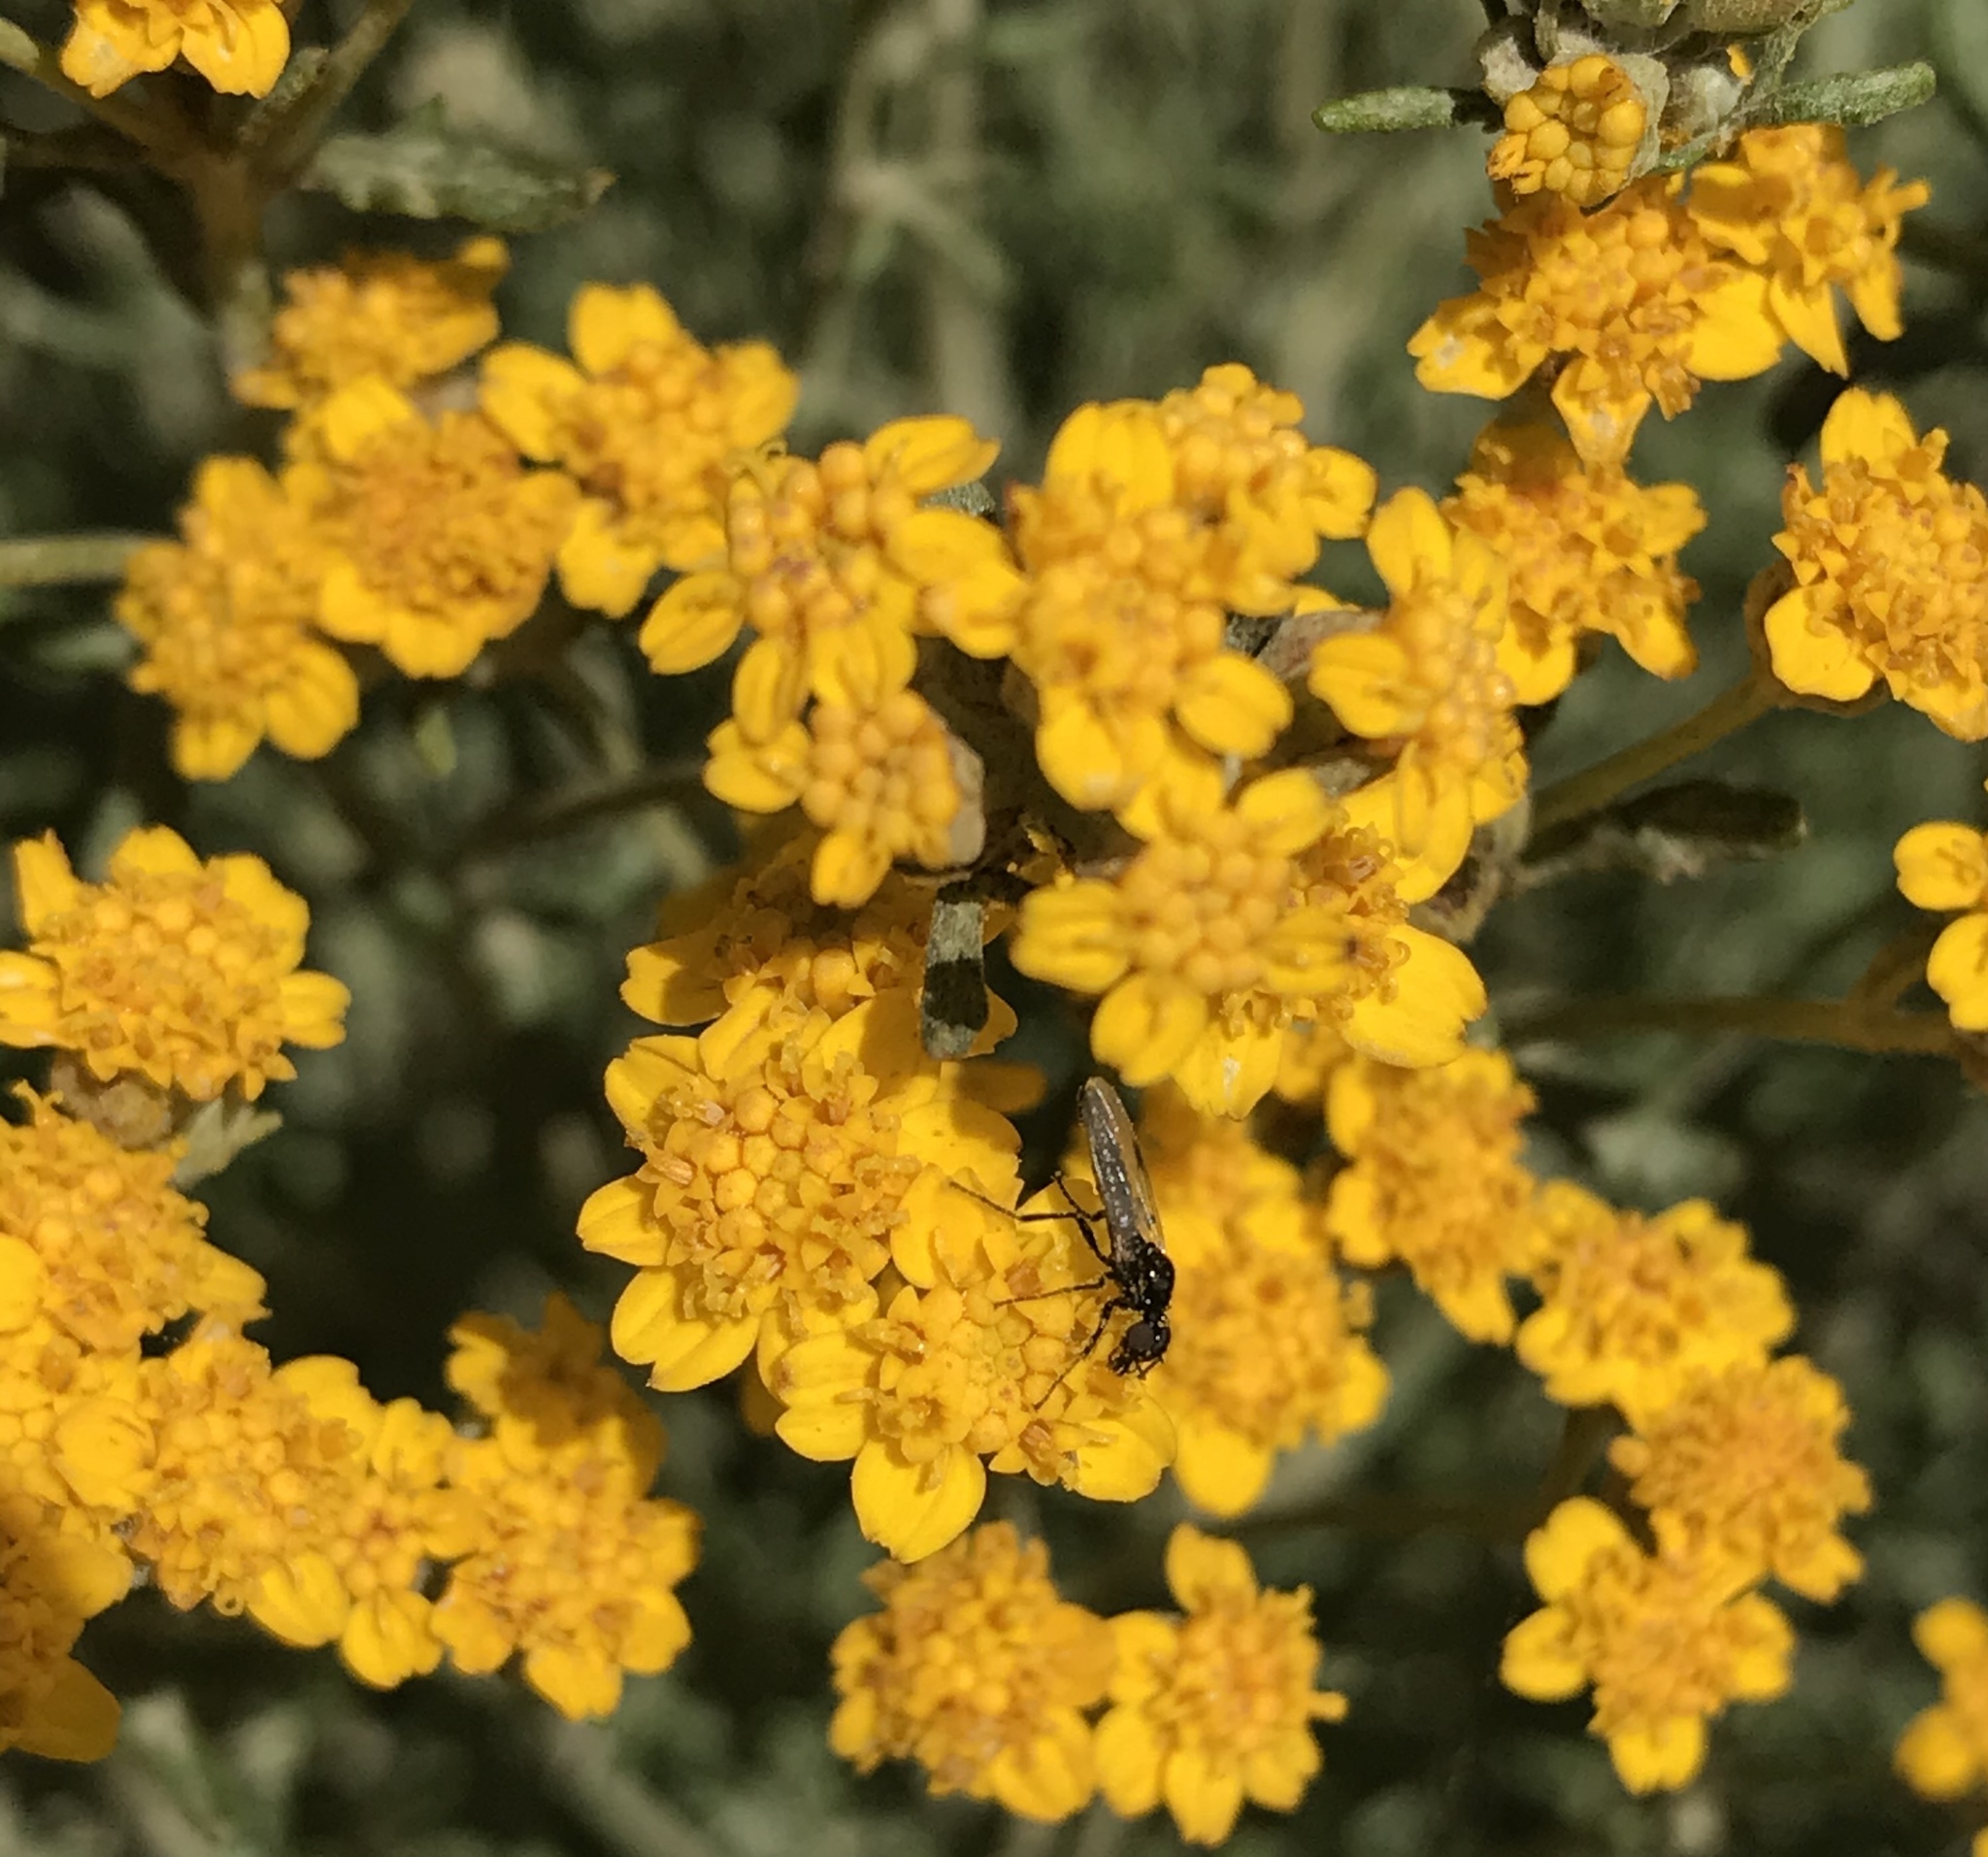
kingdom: Plantae
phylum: Tracheophyta
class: Magnoliopsida
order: Asterales
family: Asteraceae
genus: Eriophyllum
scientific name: Eriophyllum confertiflorum
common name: Golden-yarrow
